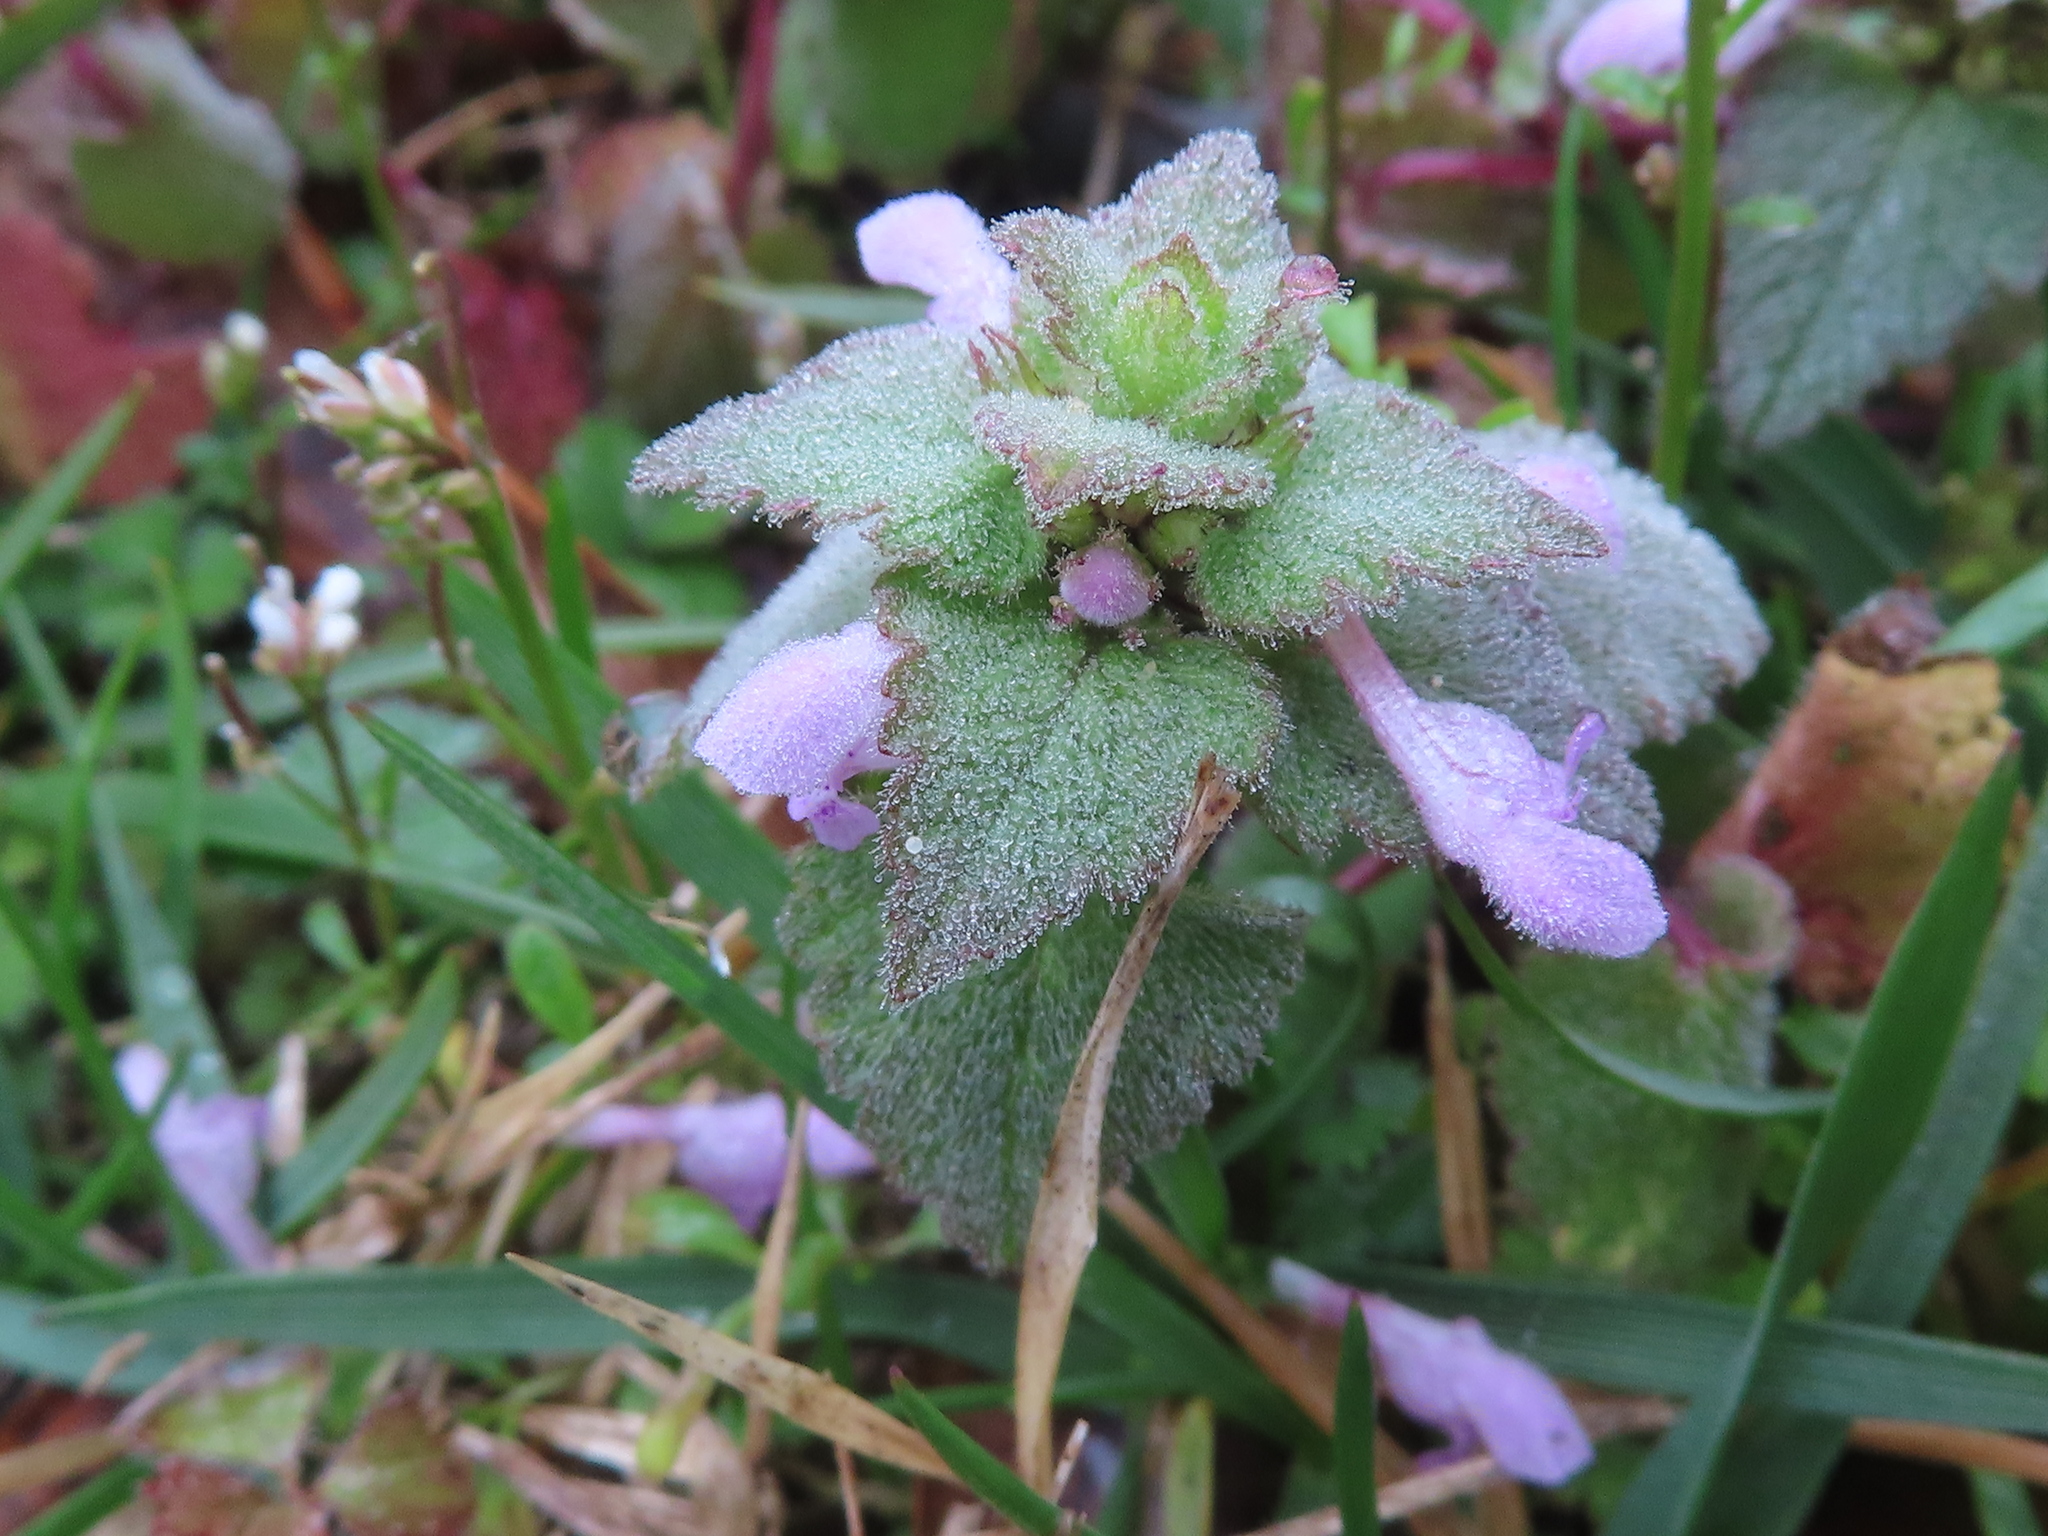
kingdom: Plantae
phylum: Tracheophyta
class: Magnoliopsida
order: Lamiales
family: Lamiaceae
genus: Lamium
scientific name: Lamium purpureum
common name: Red dead-nettle
